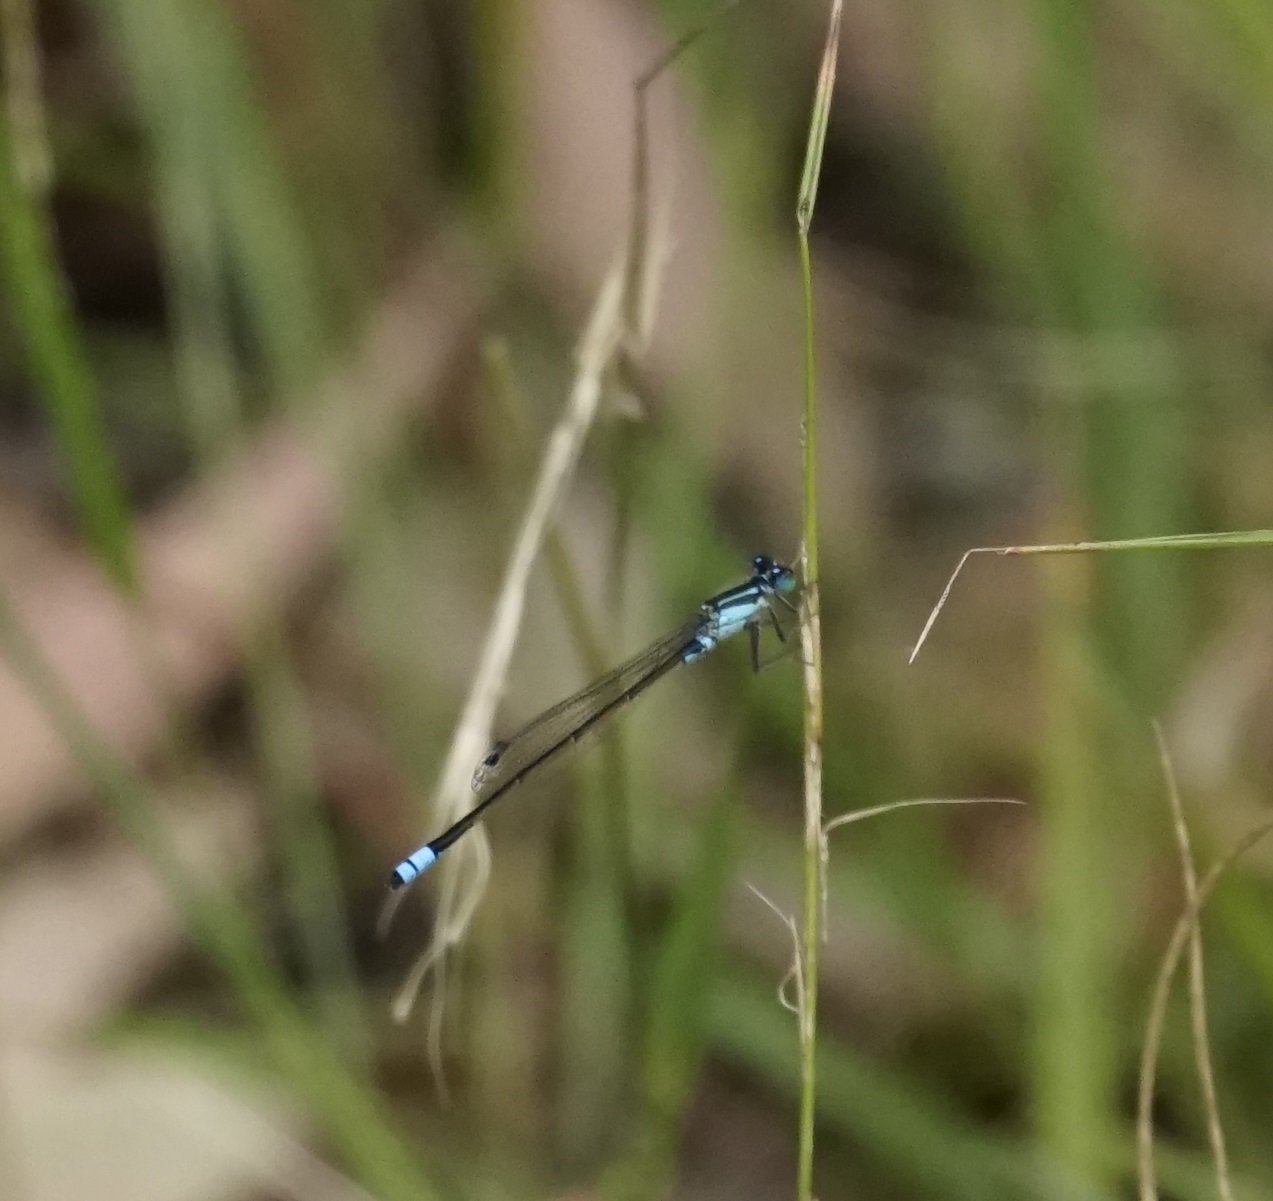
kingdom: Animalia
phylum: Arthropoda
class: Insecta
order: Odonata
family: Coenagrionidae
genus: Ischnura
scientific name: Ischnura heterosticta
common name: Common bluetail
